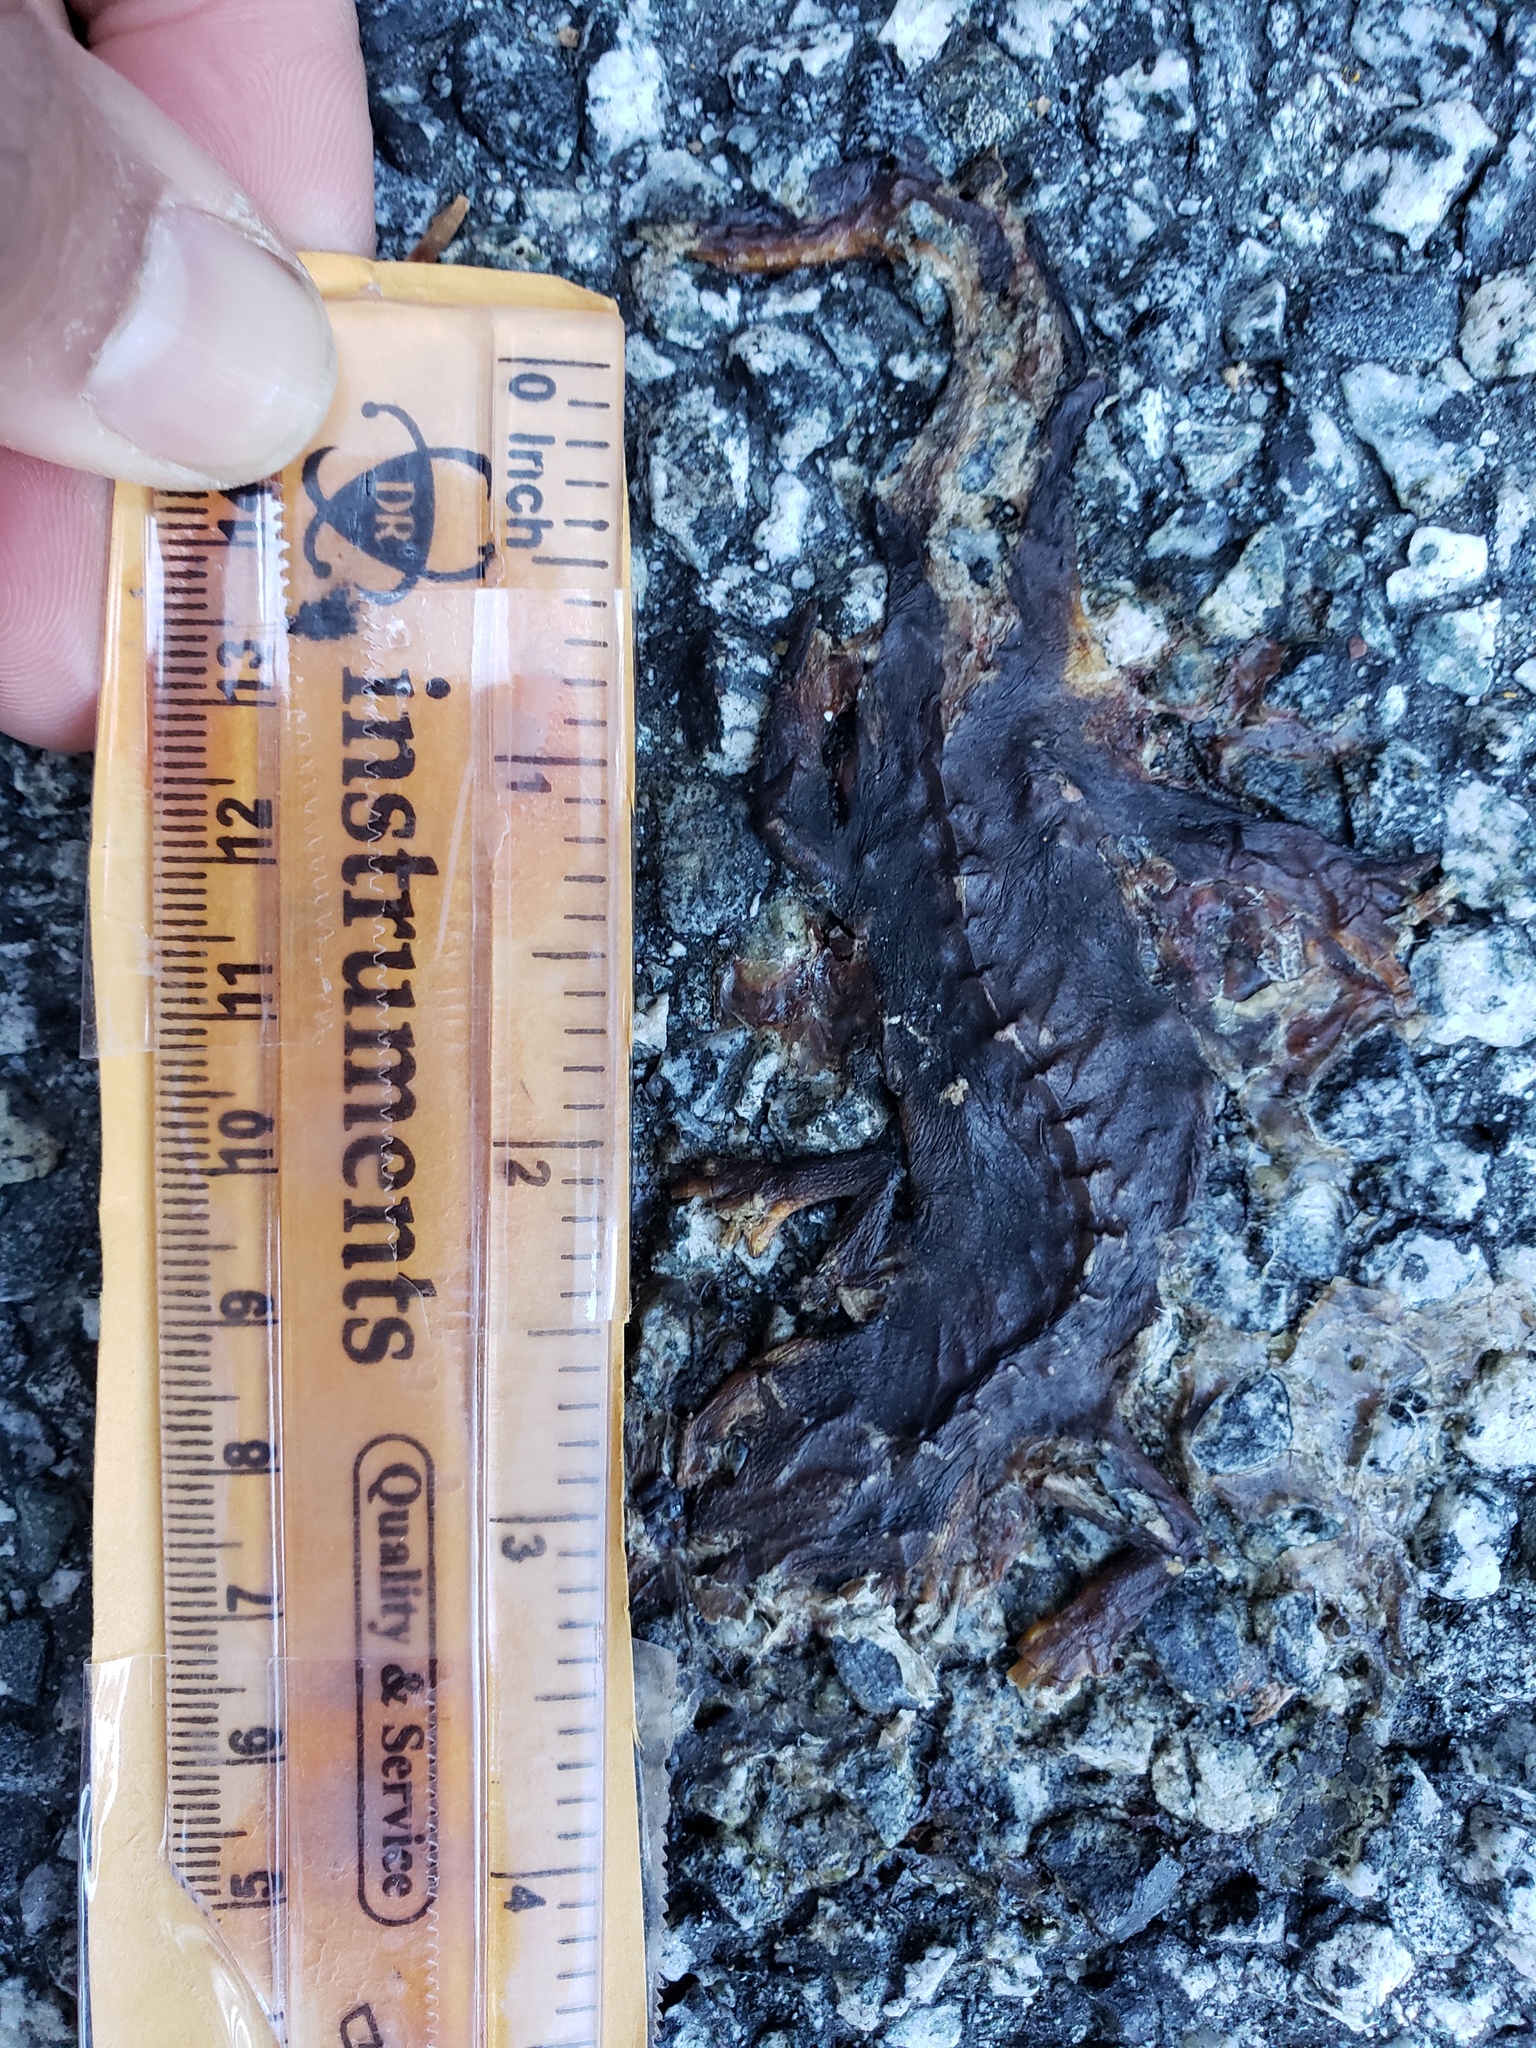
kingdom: Animalia
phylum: Chordata
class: Amphibia
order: Caudata
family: Salamandridae
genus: Taricha
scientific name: Taricha
